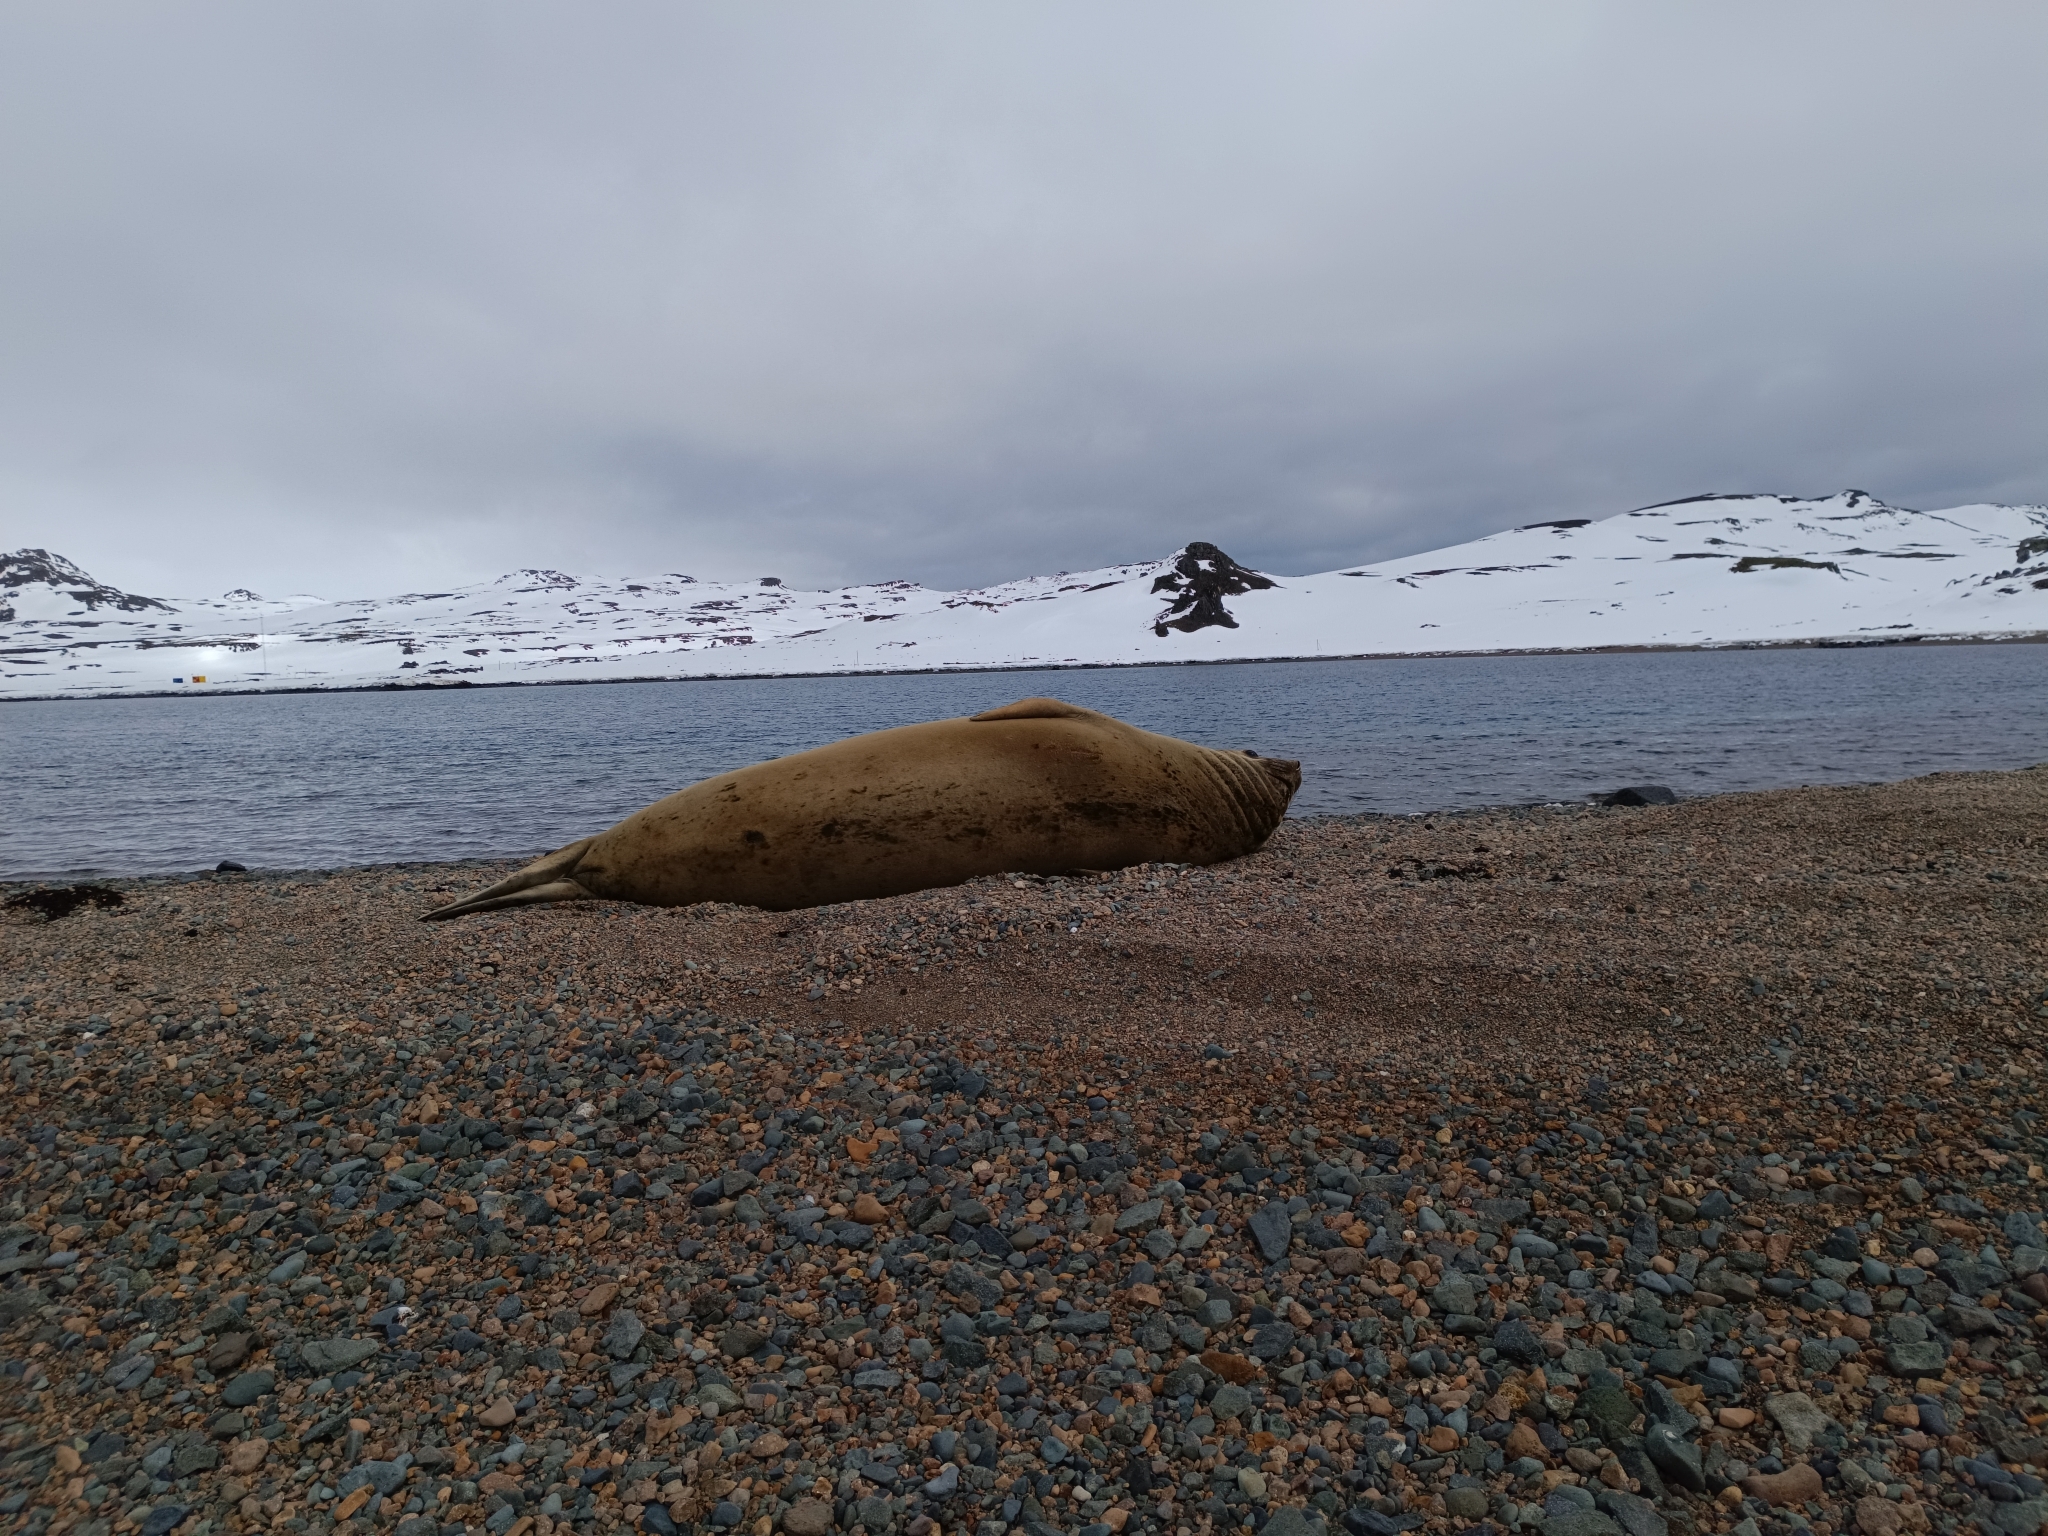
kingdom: Animalia
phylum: Chordata
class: Mammalia
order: Carnivora
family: Phocidae
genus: Mirounga
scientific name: Mirounga leonina
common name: Southern elephant seal
